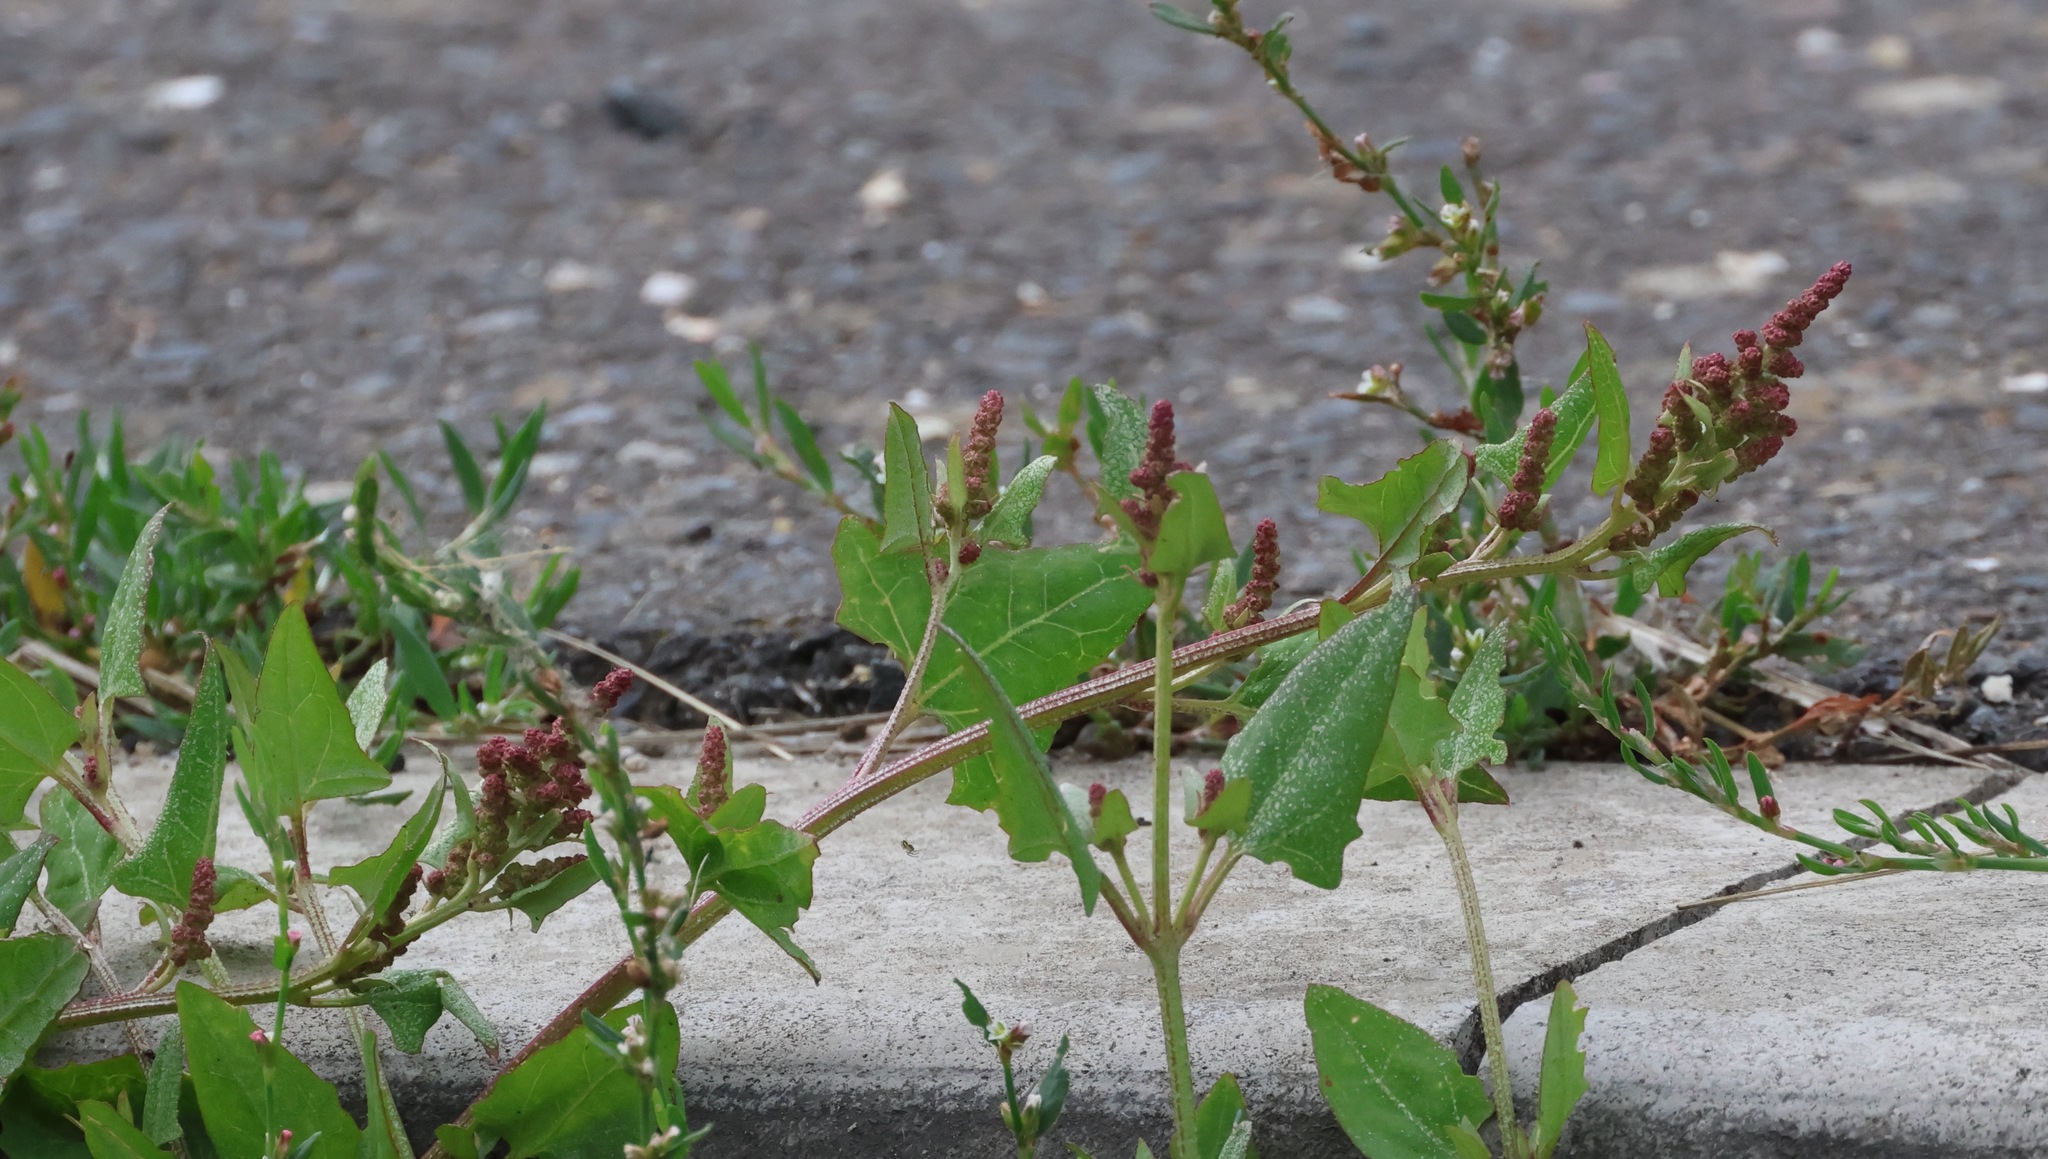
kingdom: Plantae
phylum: Tracheophyta
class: Magnoliopsida
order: Caryophyllales
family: Amaranthaceae
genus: Atriplex
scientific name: Atriplex prostrata
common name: Spear-leaved orache
